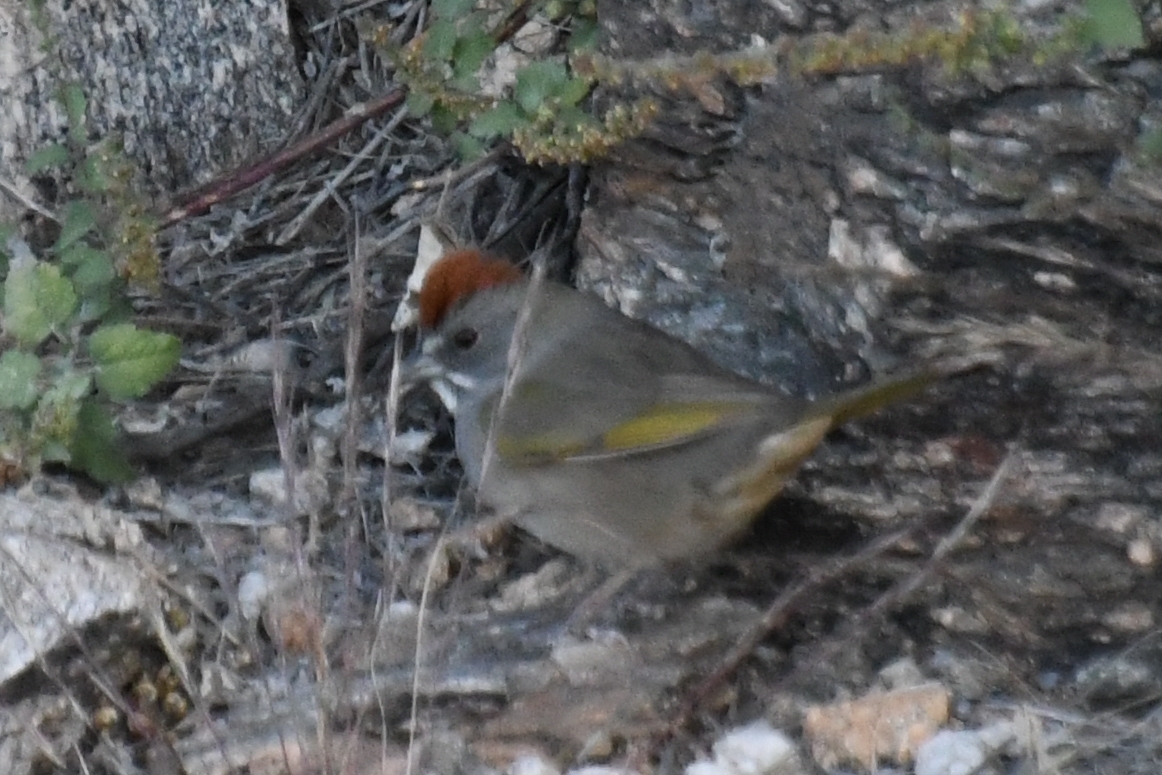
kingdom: Animalia
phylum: Chordata
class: Aves
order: Passeriformes
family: Passerellidae
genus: Pipilo
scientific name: Pipilo chlorurus
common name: Green-tailed towhee
